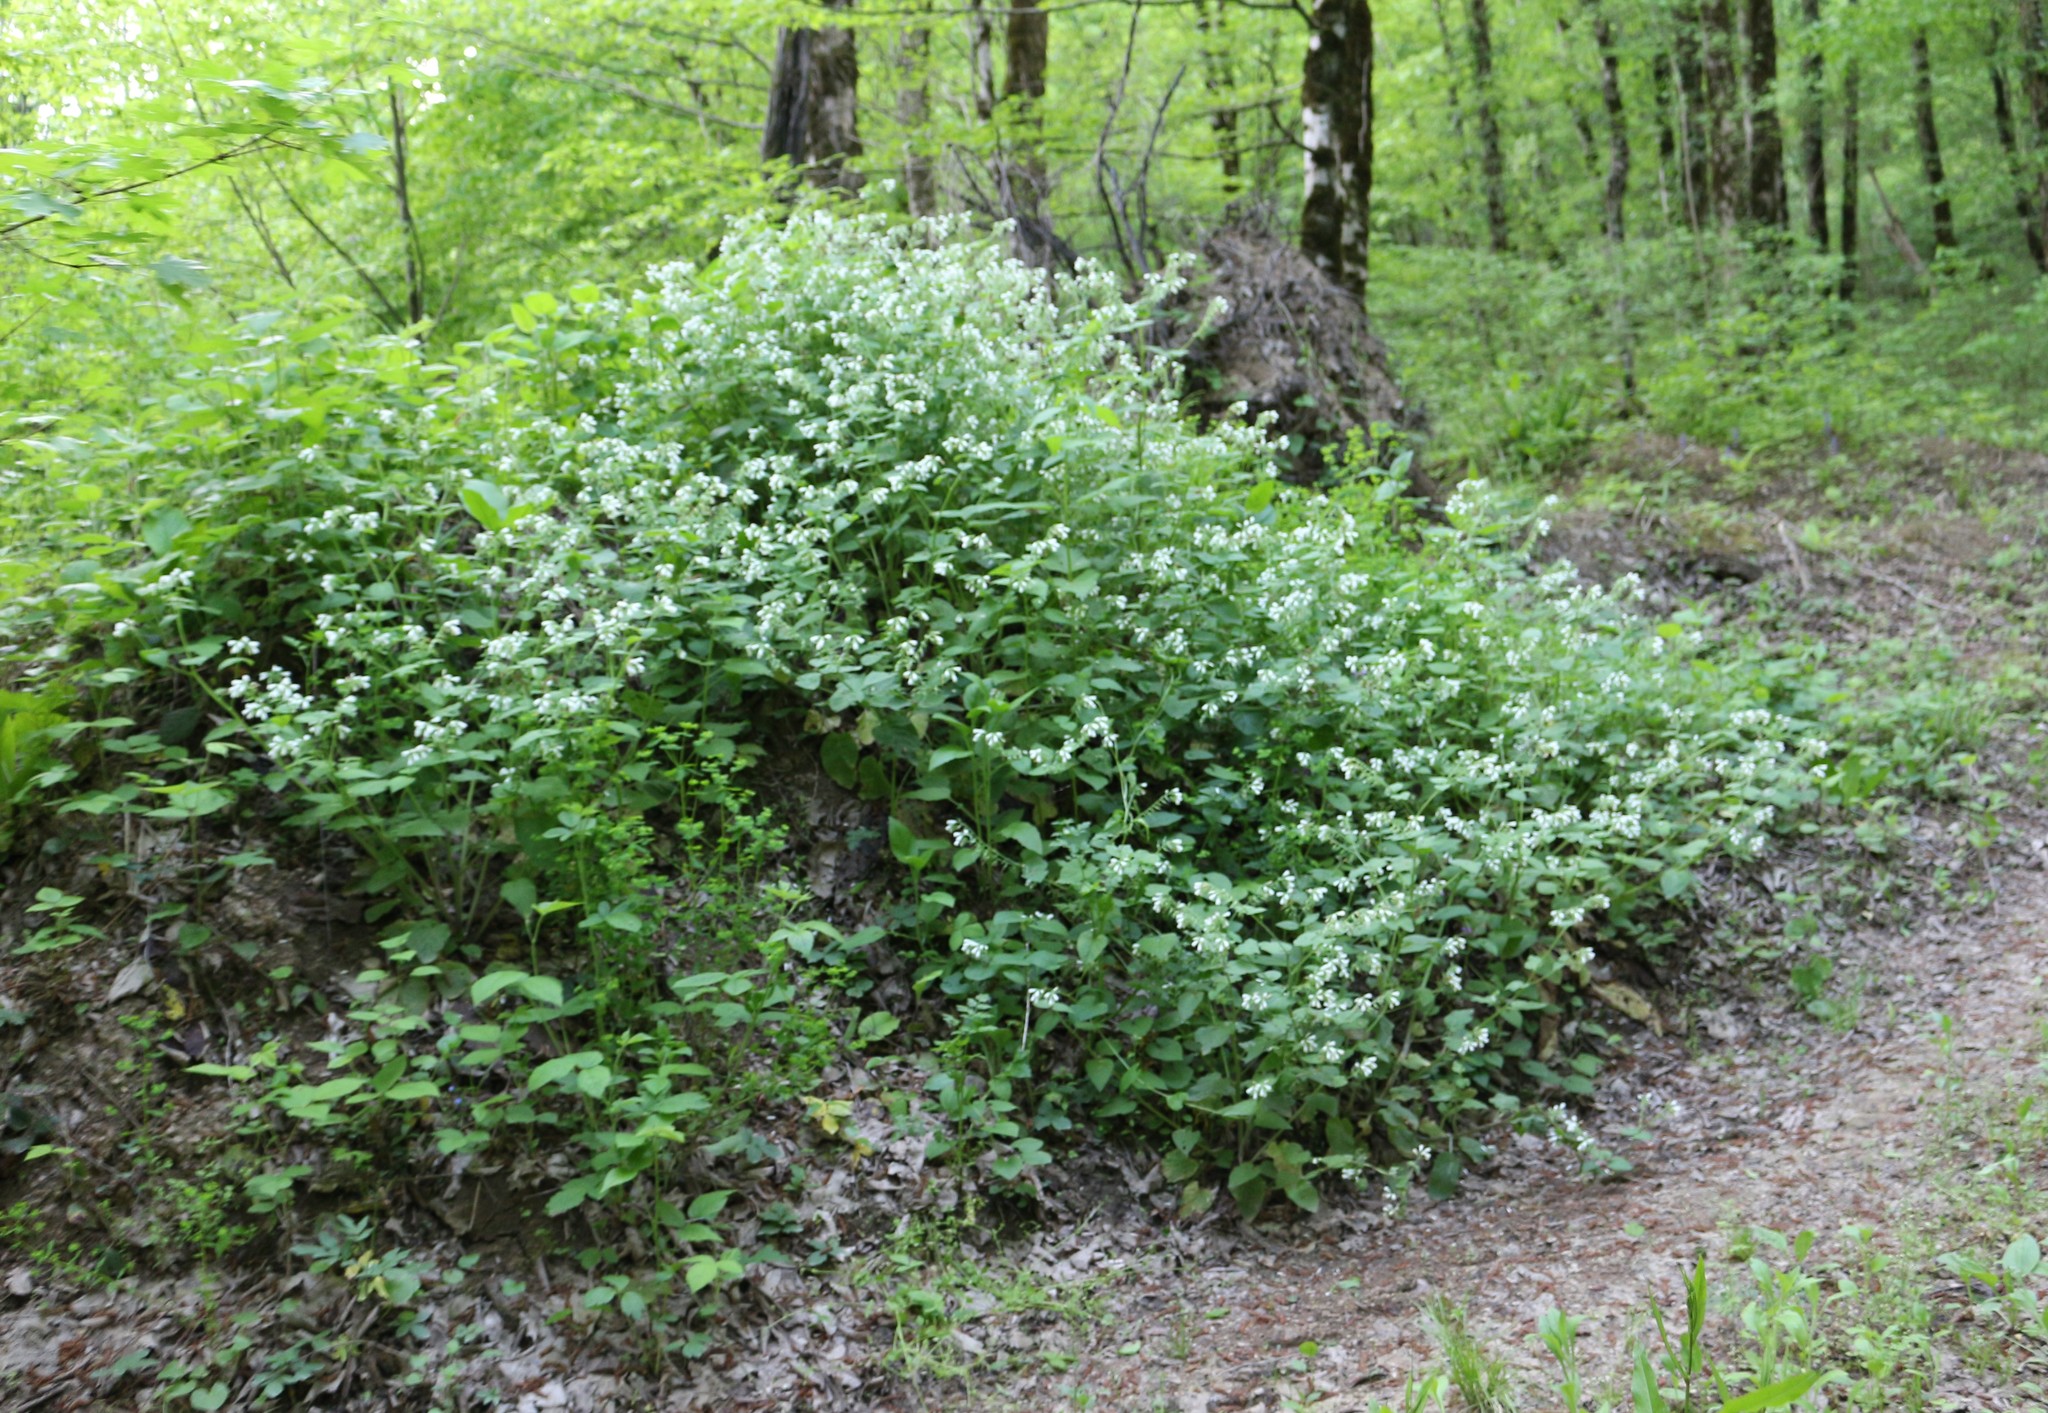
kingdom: Plantae
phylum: Tracheophyta
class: Magnoliopsida
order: Boraginales
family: Boraginaceae
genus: Symphytum
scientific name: Symphytum tauricum
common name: Crimean comfrey
